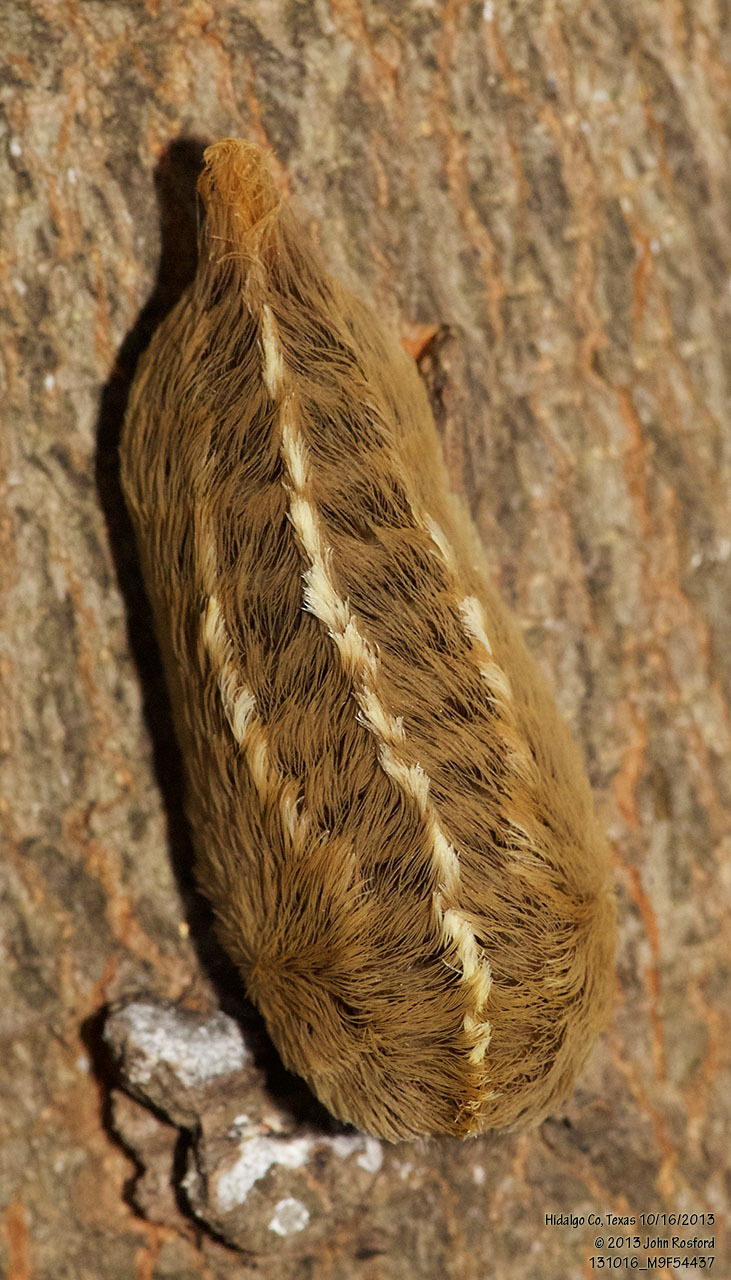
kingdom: Animalia
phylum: Arthropoda
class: Insecta
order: Lepidoptera
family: Megalopygidae
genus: Megalopyge
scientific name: Megalopyge opercularis
